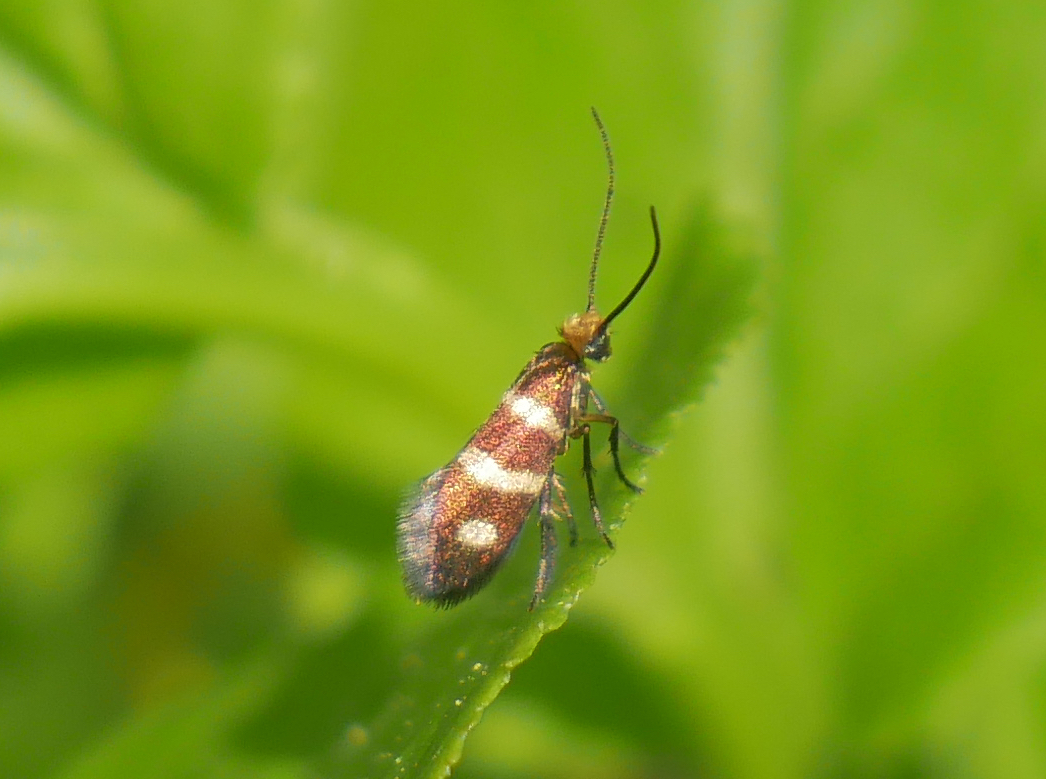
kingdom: Animalia
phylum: Arthropoda
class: Insecta
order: Lepidoptera
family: Micropterigidae
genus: Micropterix
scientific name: Micropterix aureatella
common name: Yellow-barred gold
